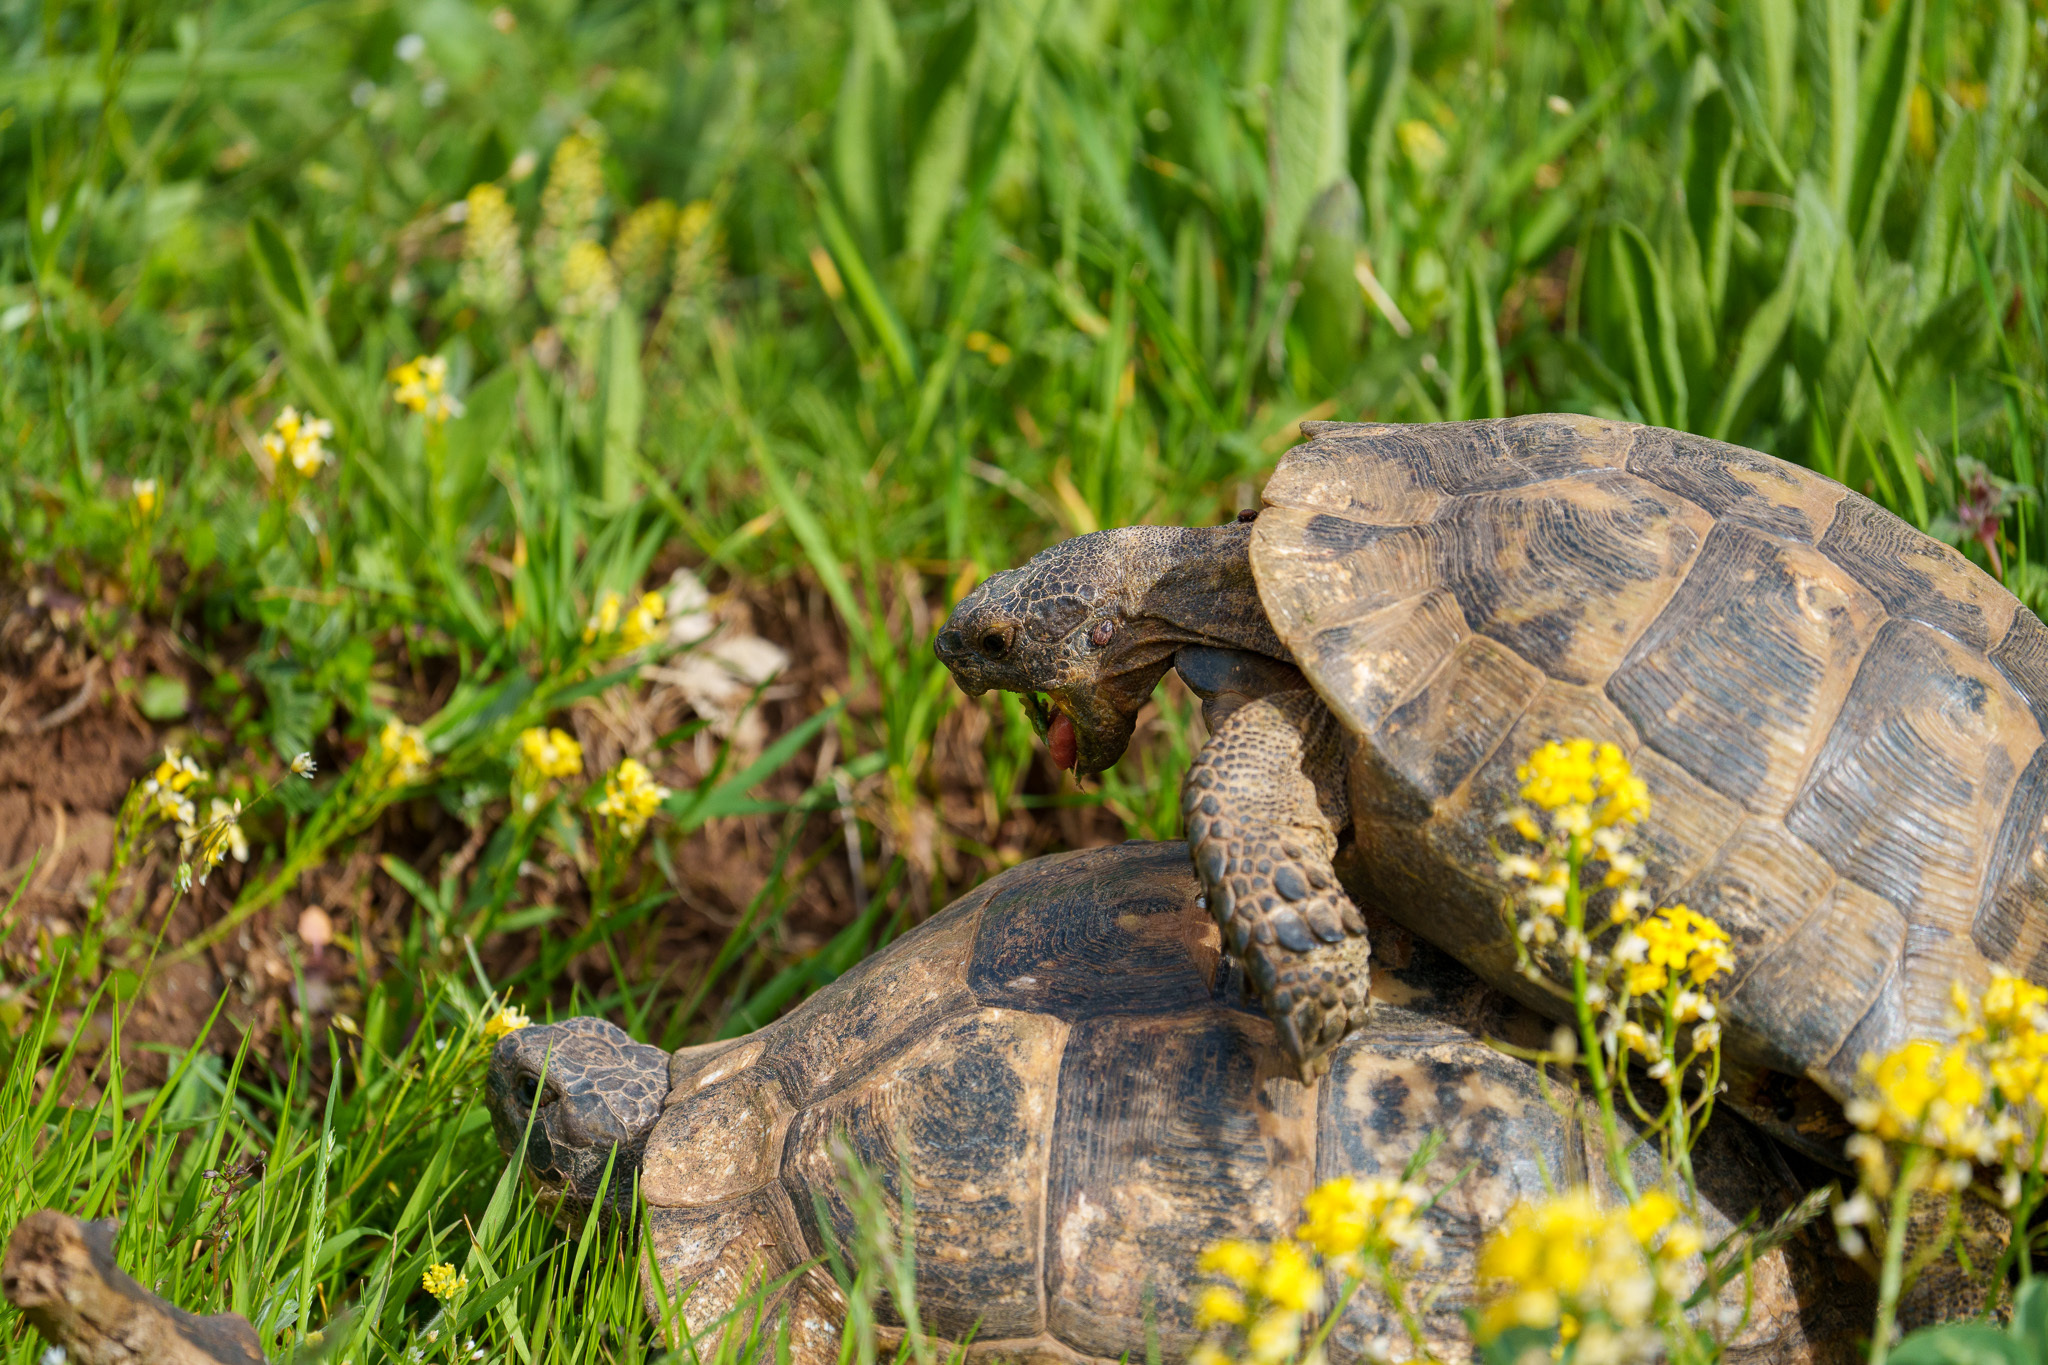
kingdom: Animalia
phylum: Chordata
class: Testudines
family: Testudinidae
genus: Testudo
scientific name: Testudo graeca
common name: Common tortoise
